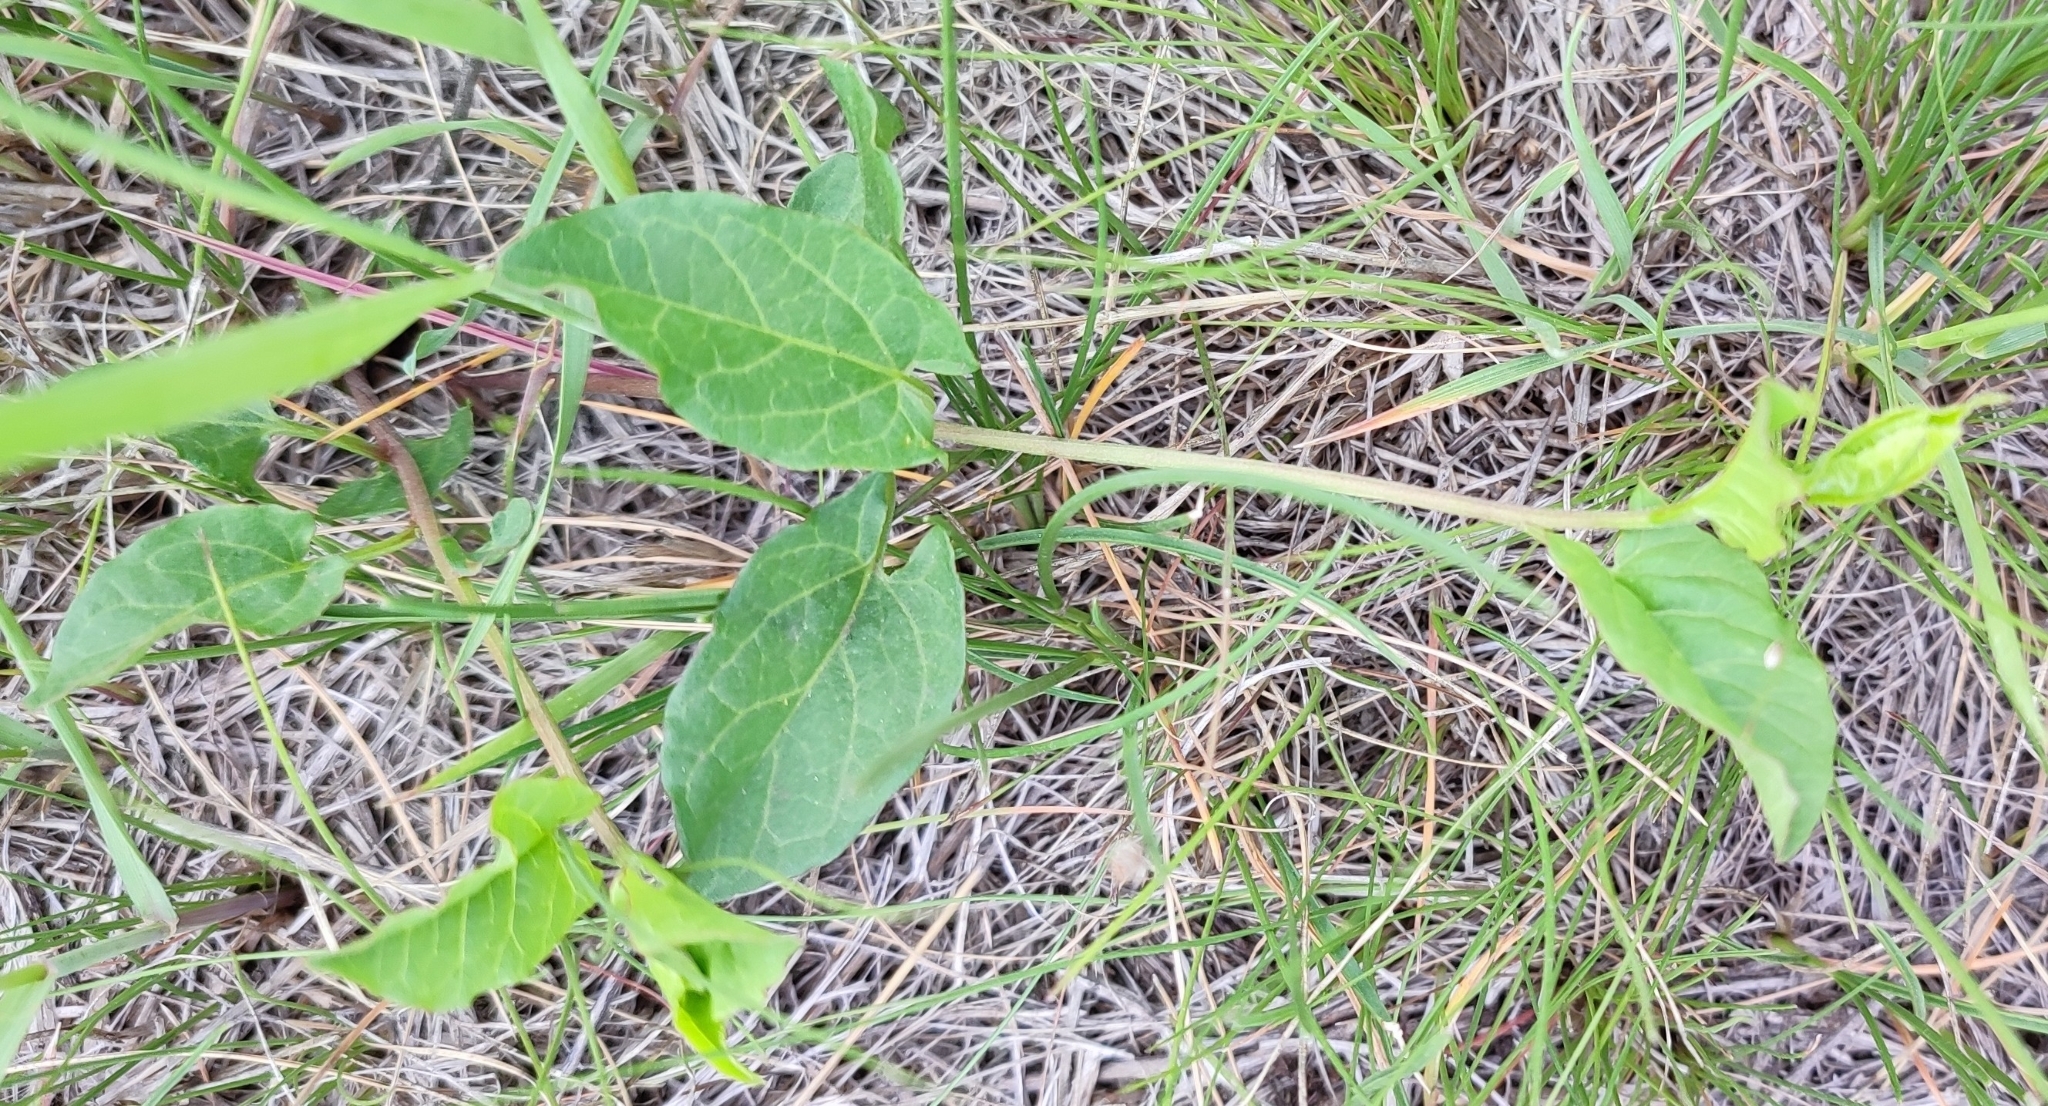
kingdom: Plantae
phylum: Tracheophyta
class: Magnoliopsida
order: Solanales
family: Convolvulaceae
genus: Convolvulus
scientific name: Convolvulus arvensis
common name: Field bindweed
